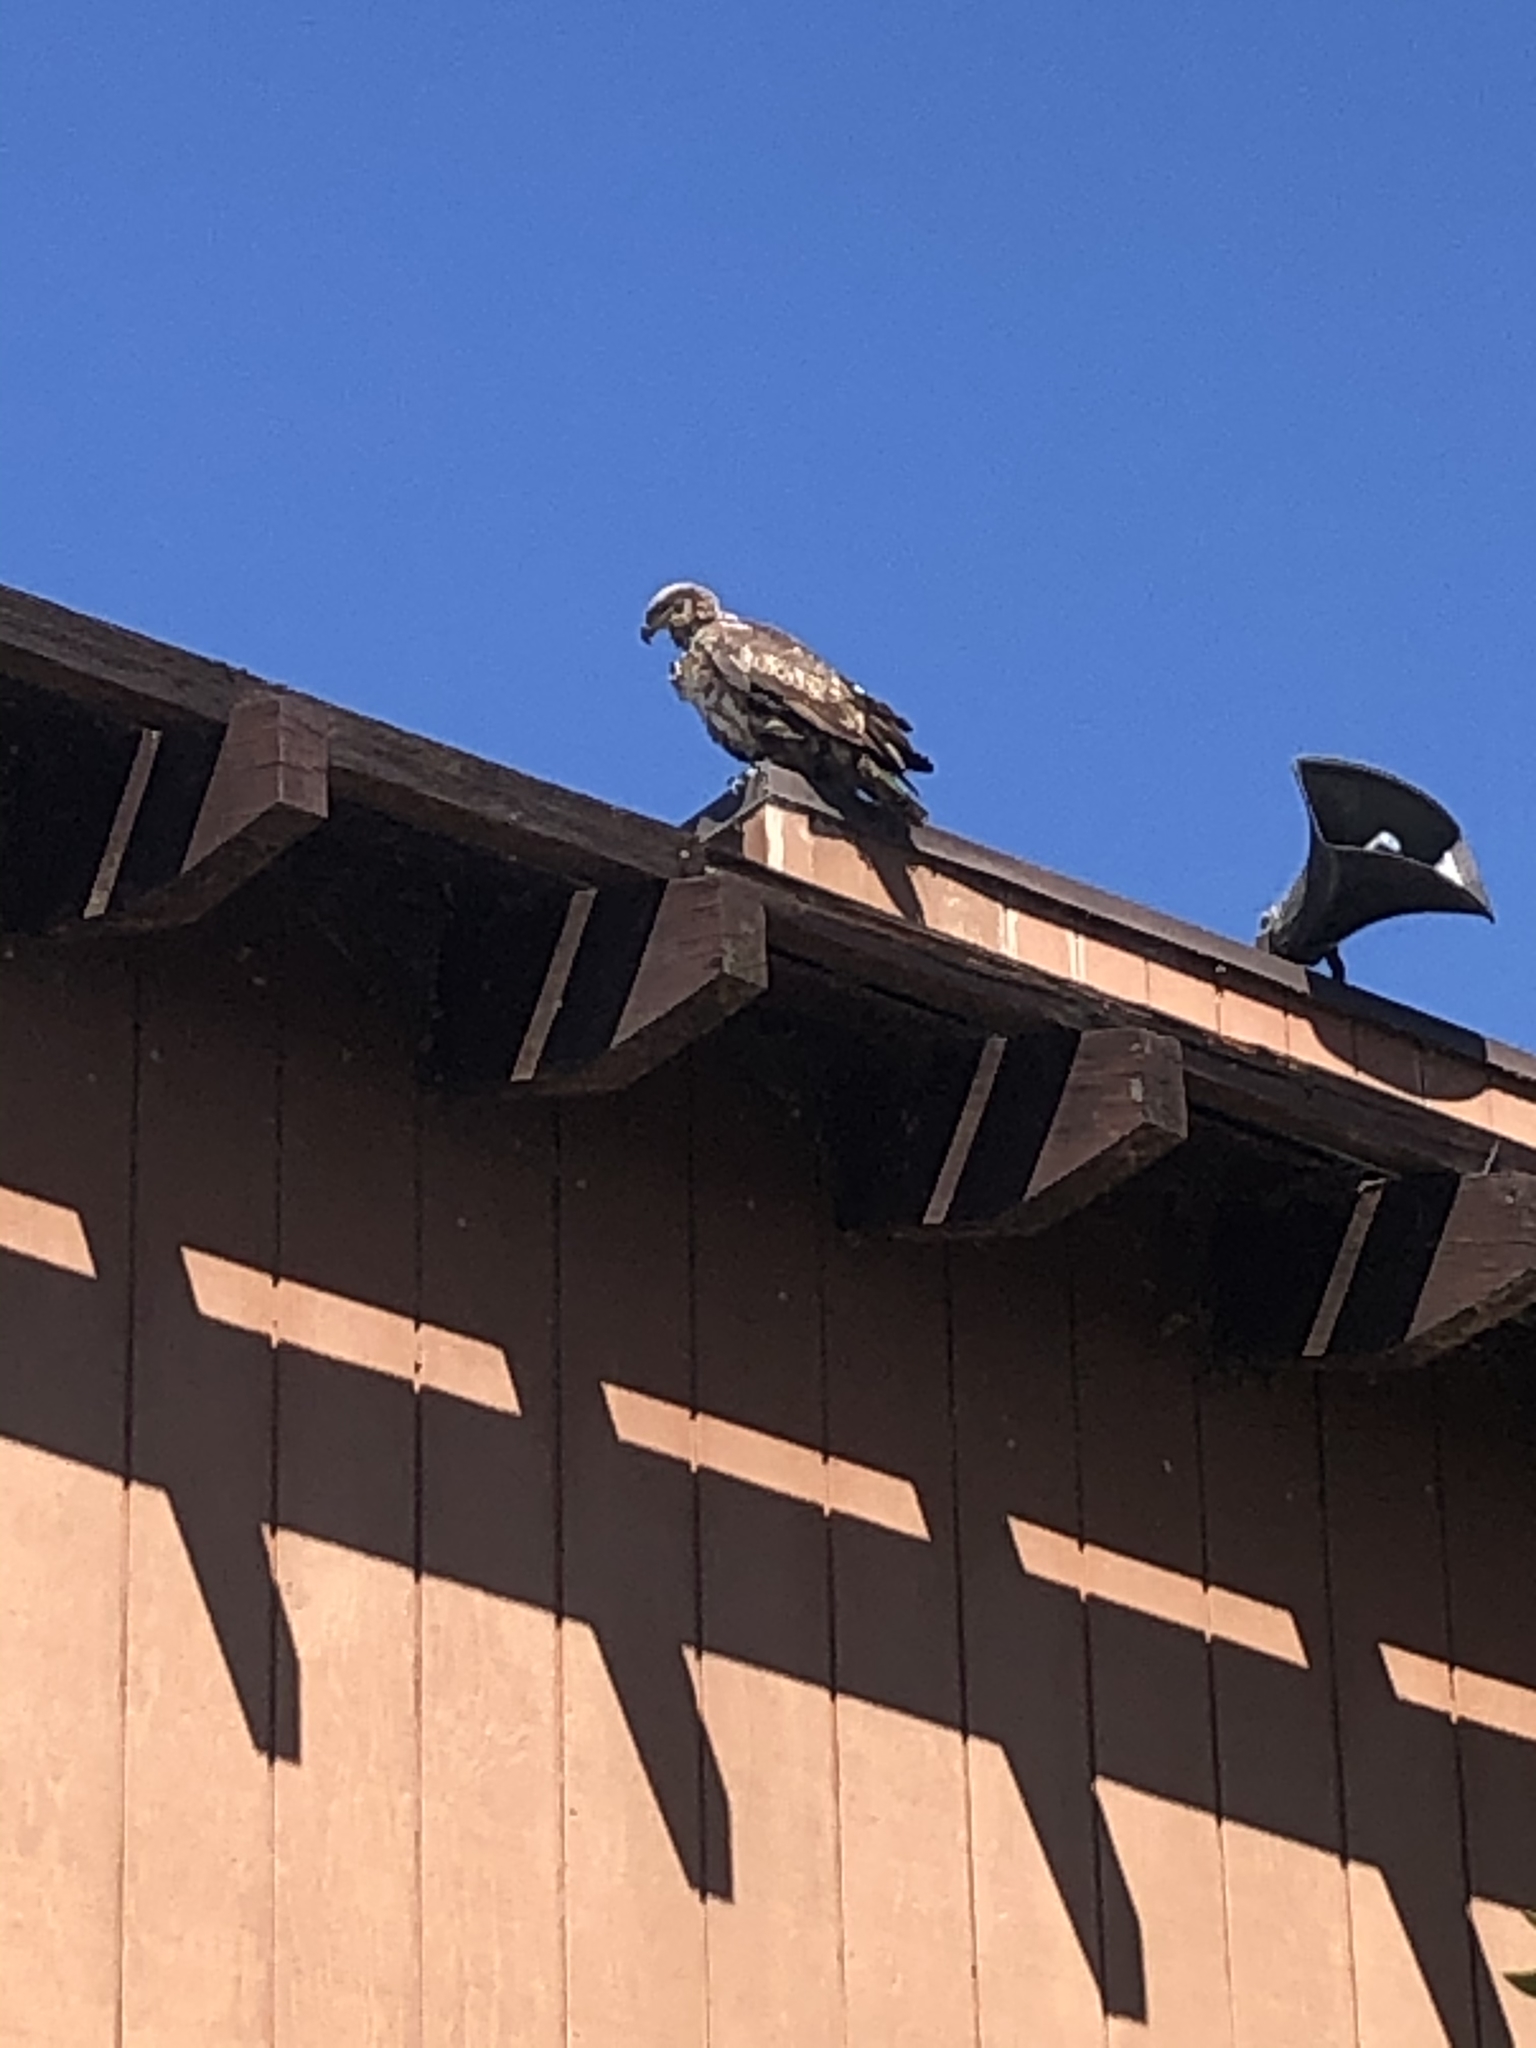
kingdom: Animalia
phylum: Chordata
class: Aves
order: Accipitriformes
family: Accipitridae
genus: Haliaeetus
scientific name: Haliaeetus leucocephalus
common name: Bald eagle
